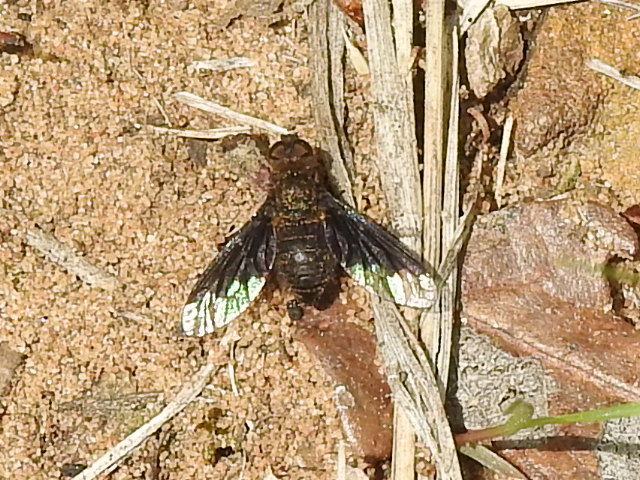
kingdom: Animalia
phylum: Arthropoda
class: Insecta
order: Diptera
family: Bombyliidae
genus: Hemipenthes
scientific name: Hemipenthes sinuosus
